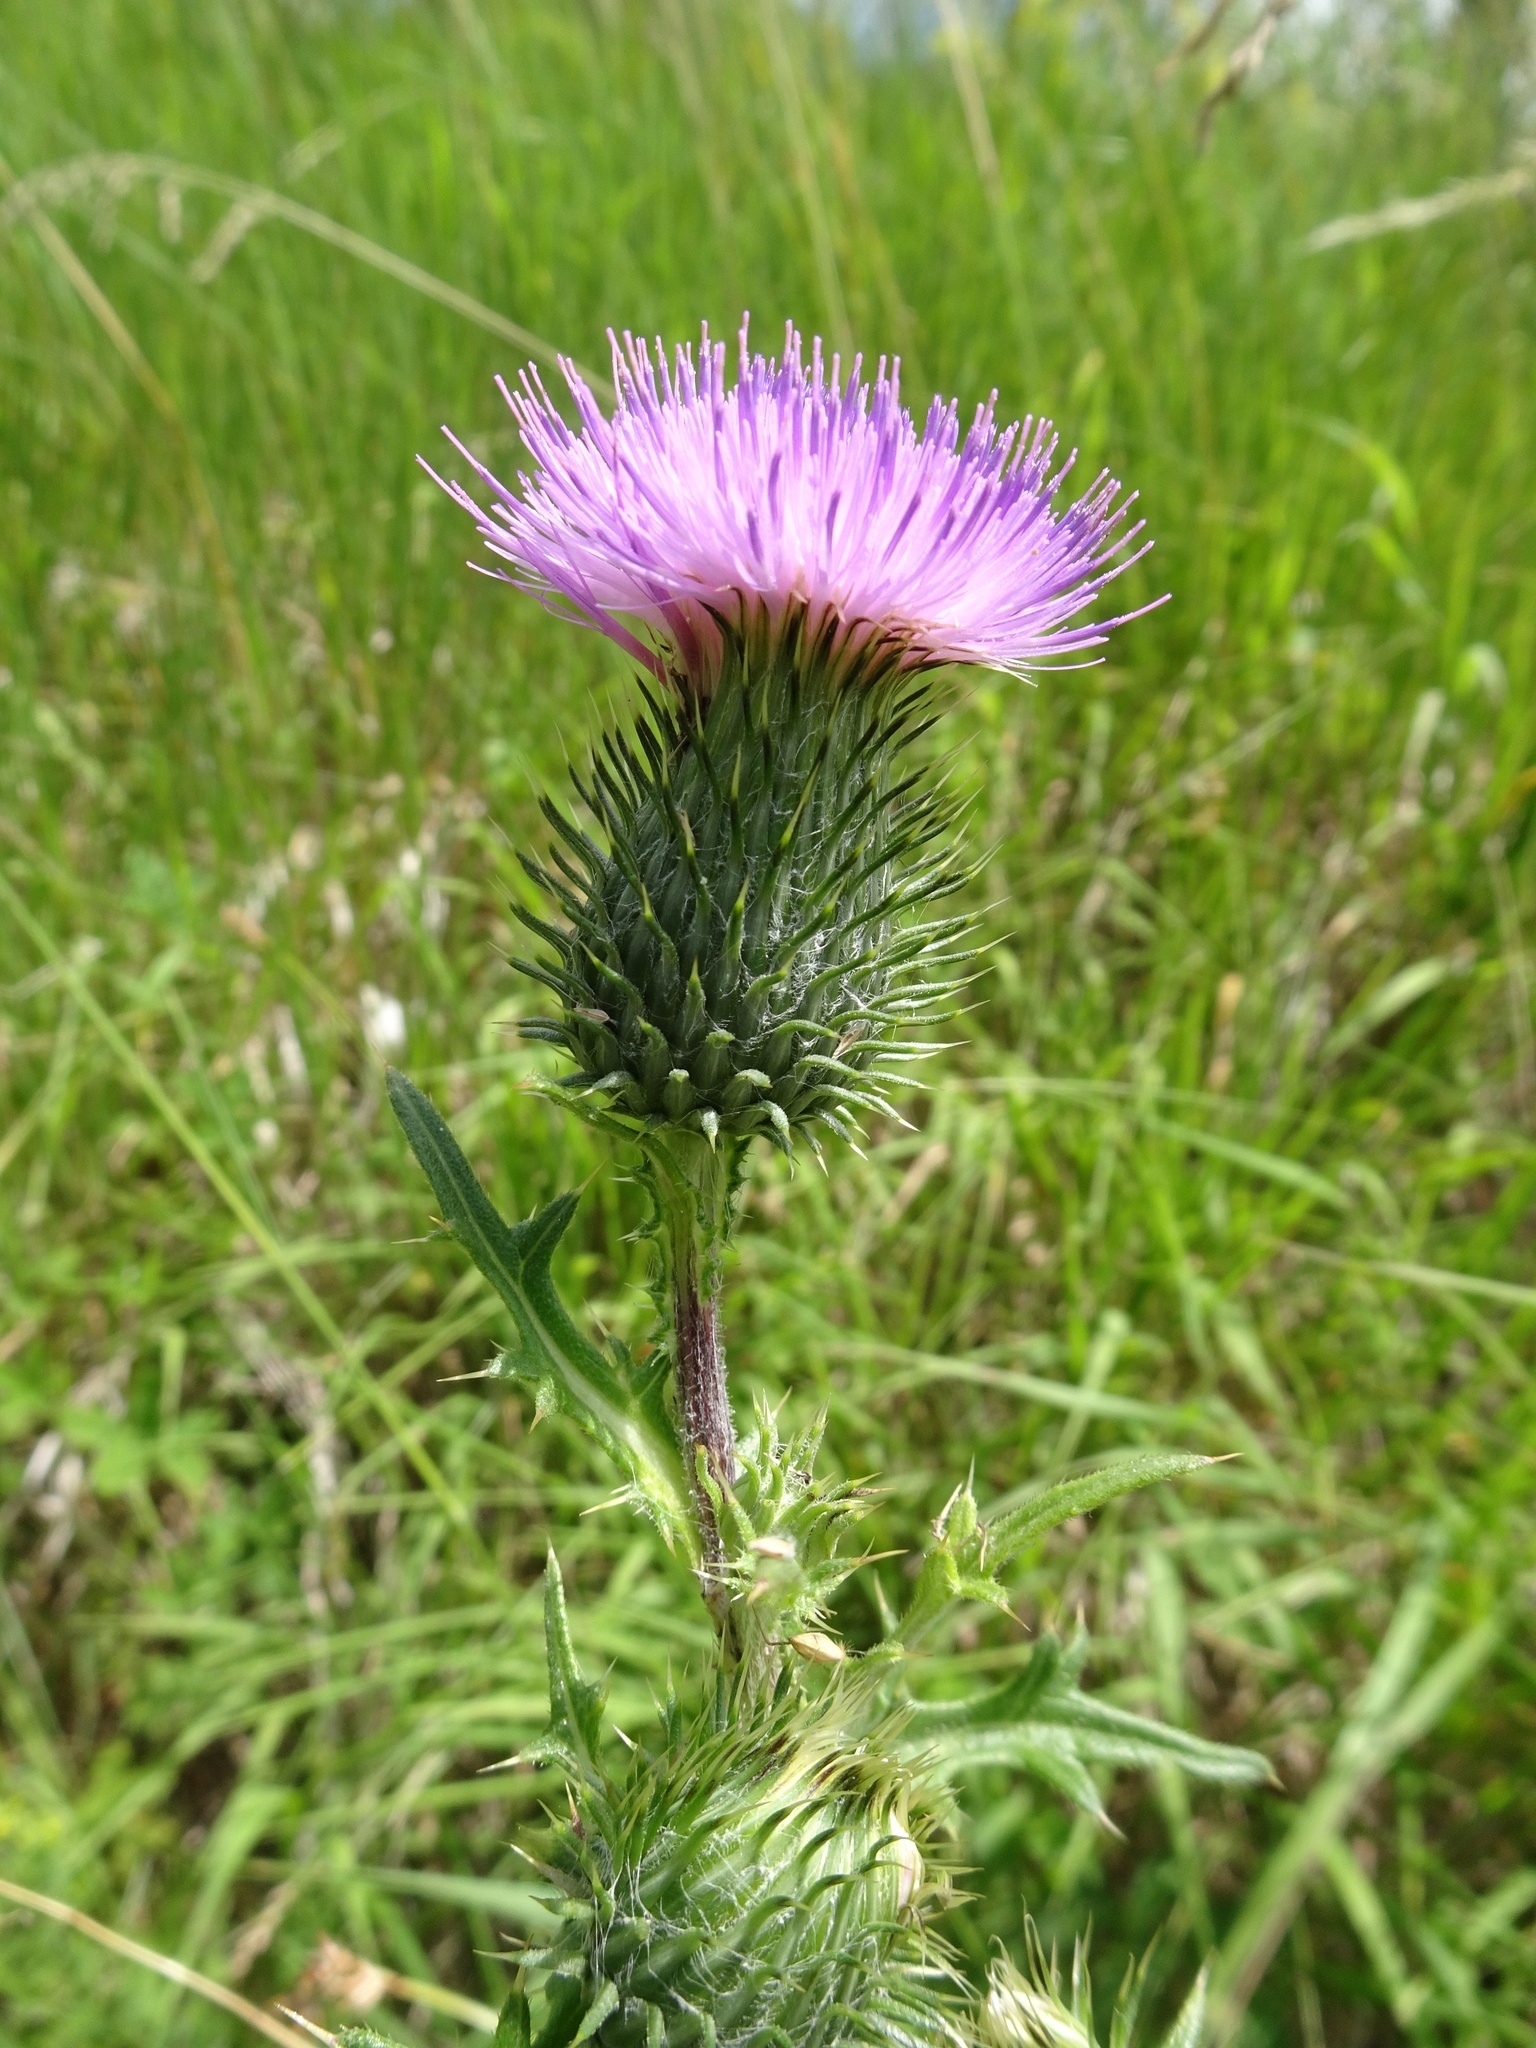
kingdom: Plantae
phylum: Tracheophyta
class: Magnoliopsida
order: Asterales
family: Asteraceae
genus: Cirsium
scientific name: Cirsium vulgare
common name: Bull thistle
